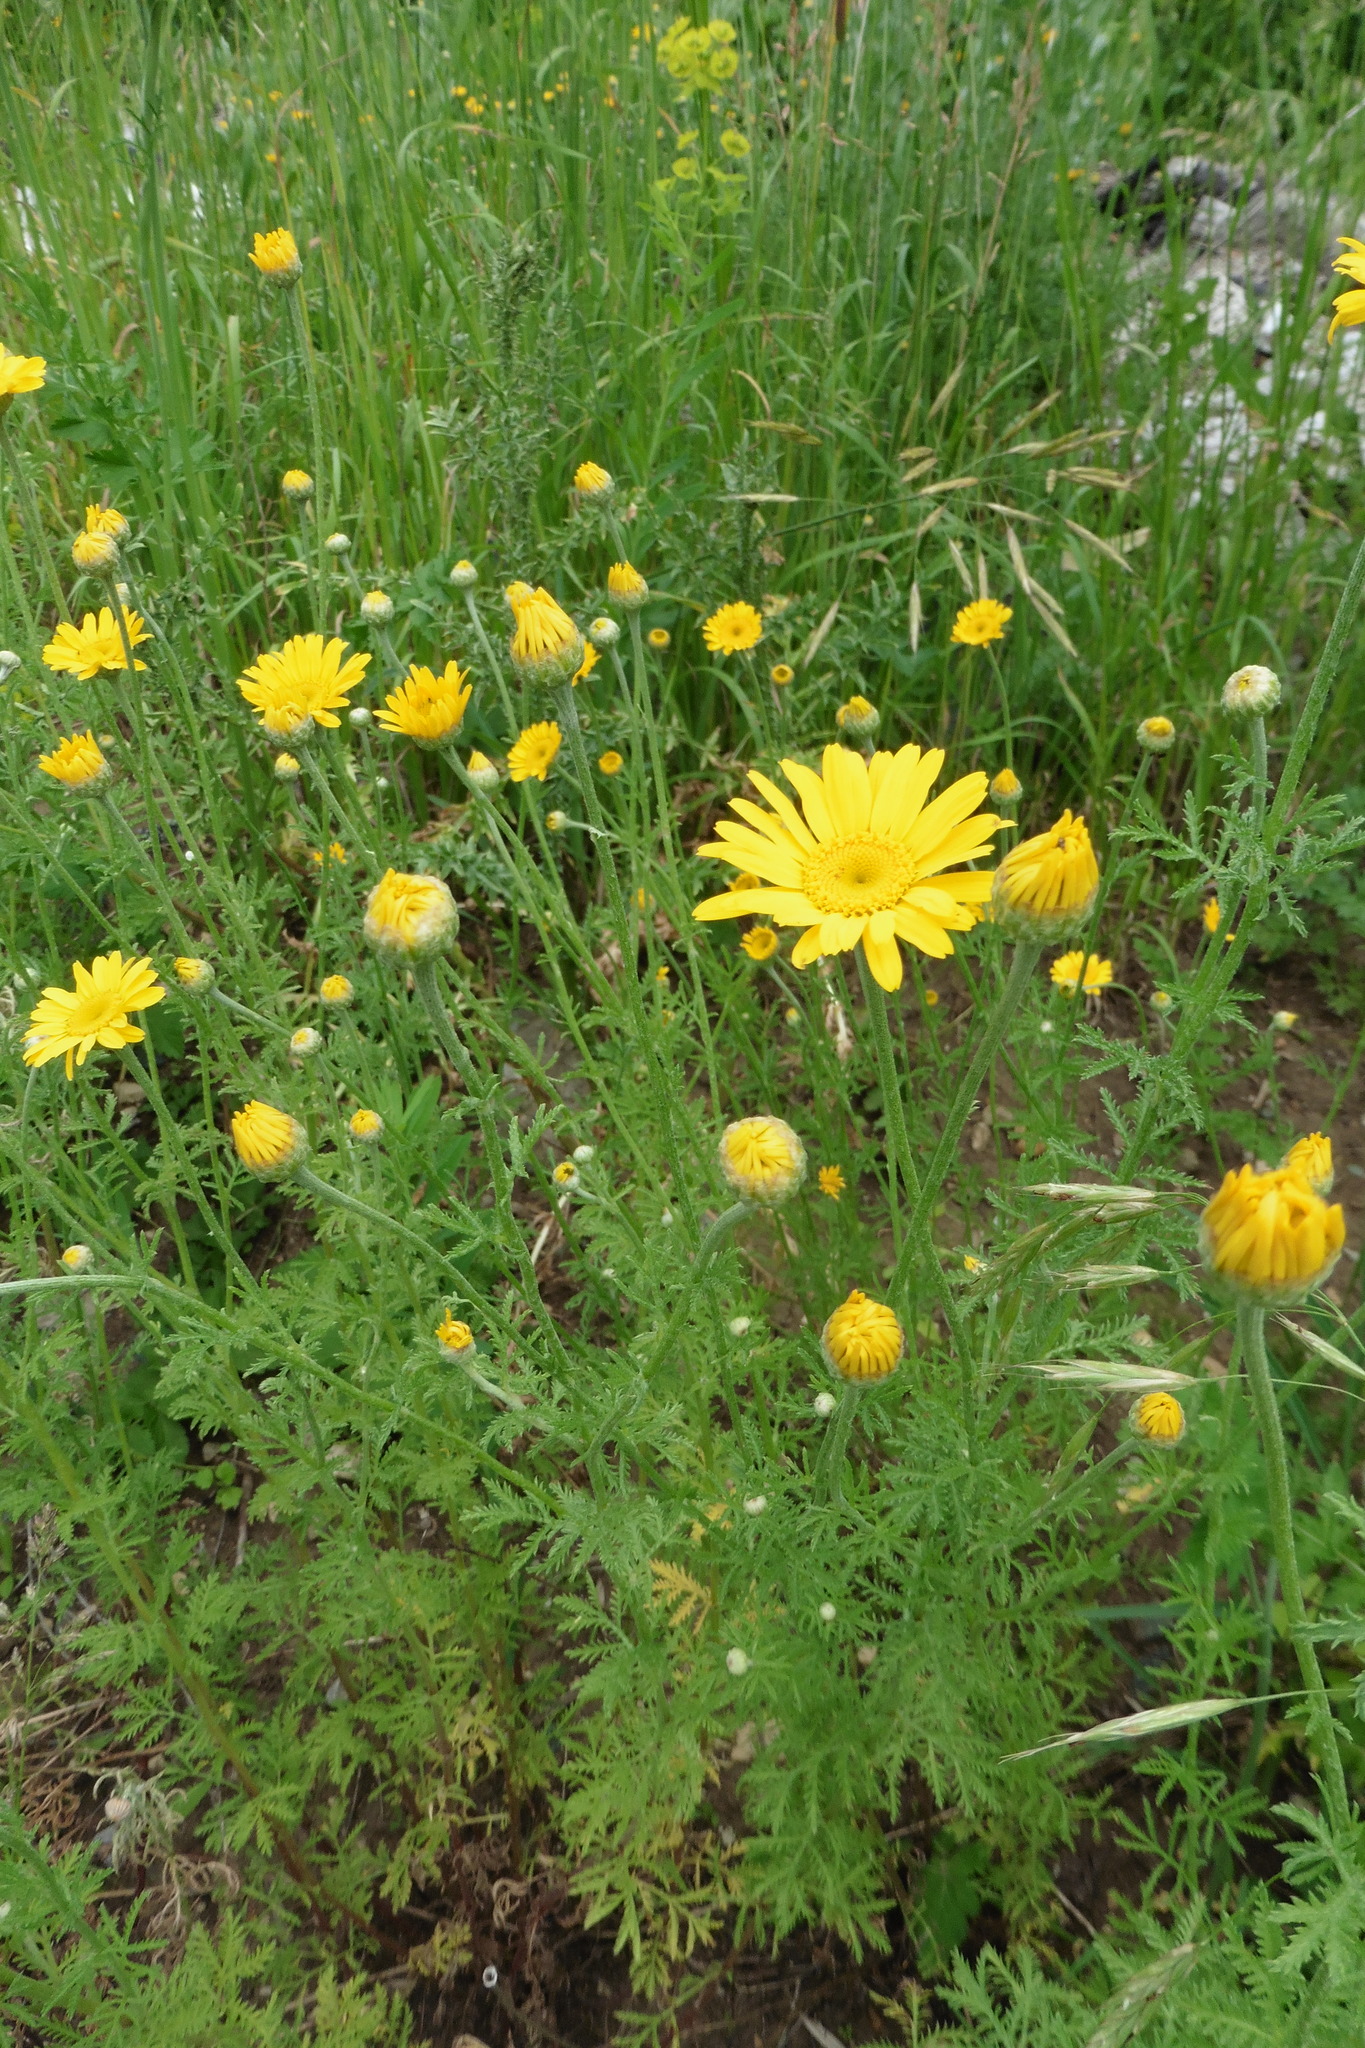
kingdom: Plantae
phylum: Tracheophyta
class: Magnoliopsida
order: Asterales
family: Asteraceae
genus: Cota
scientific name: Cota tinctoria
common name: Golden chamomile
